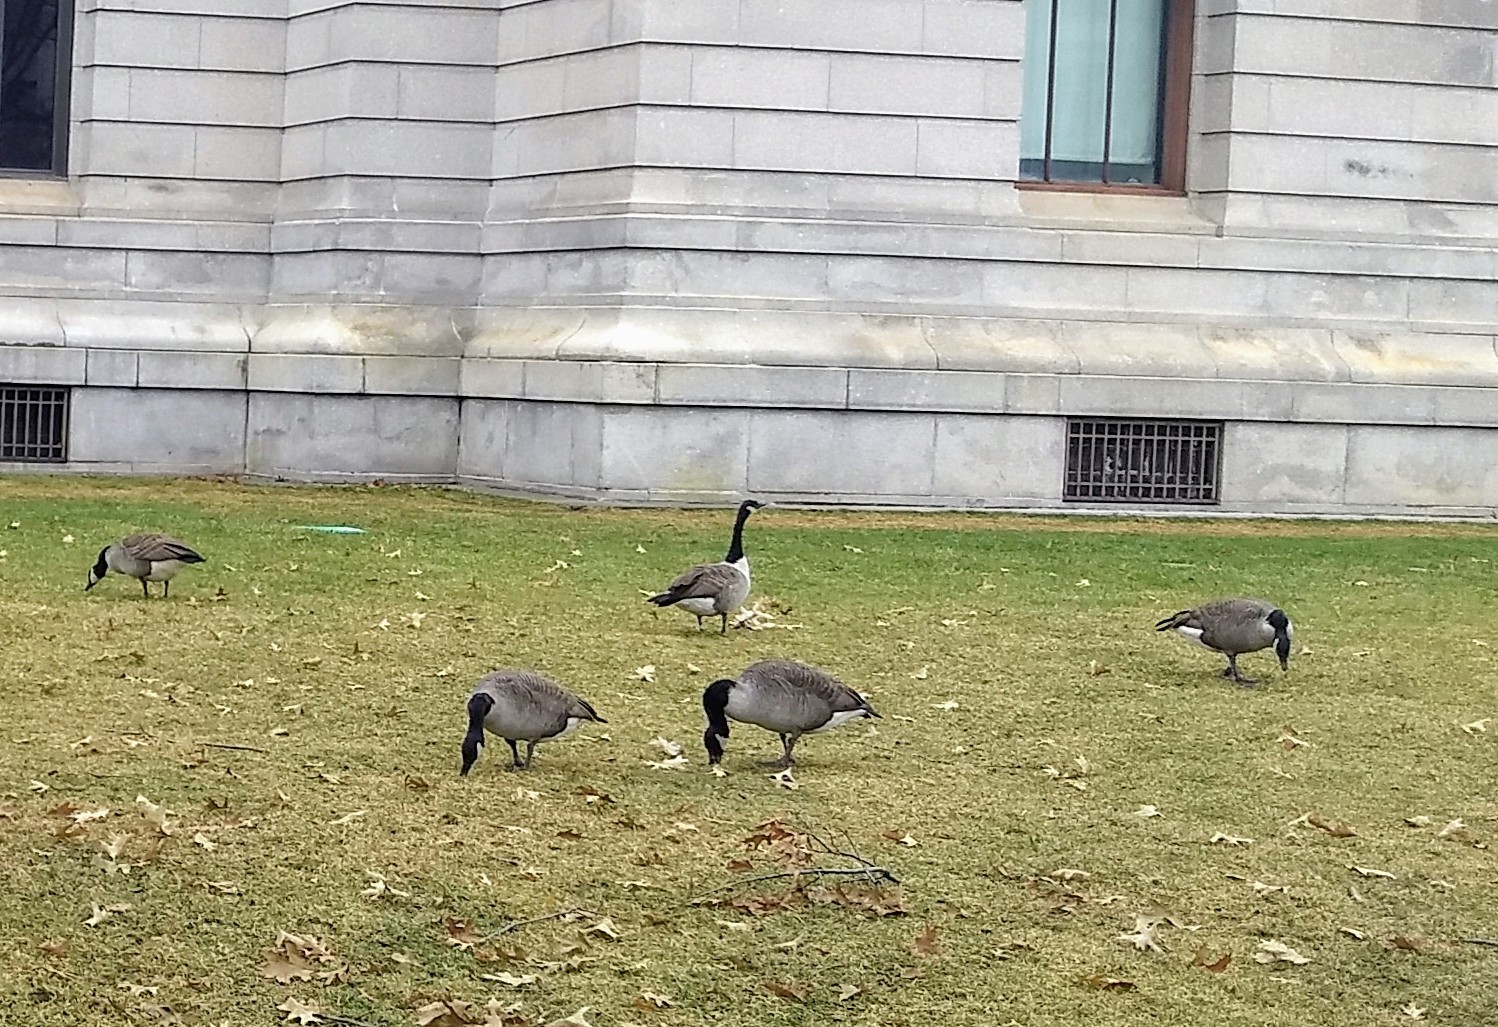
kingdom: Animalia
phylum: Chordata
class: Aves
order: Anseriformes
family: Anatidae
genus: Branta
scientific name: Branta canadensis
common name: Canada goose
